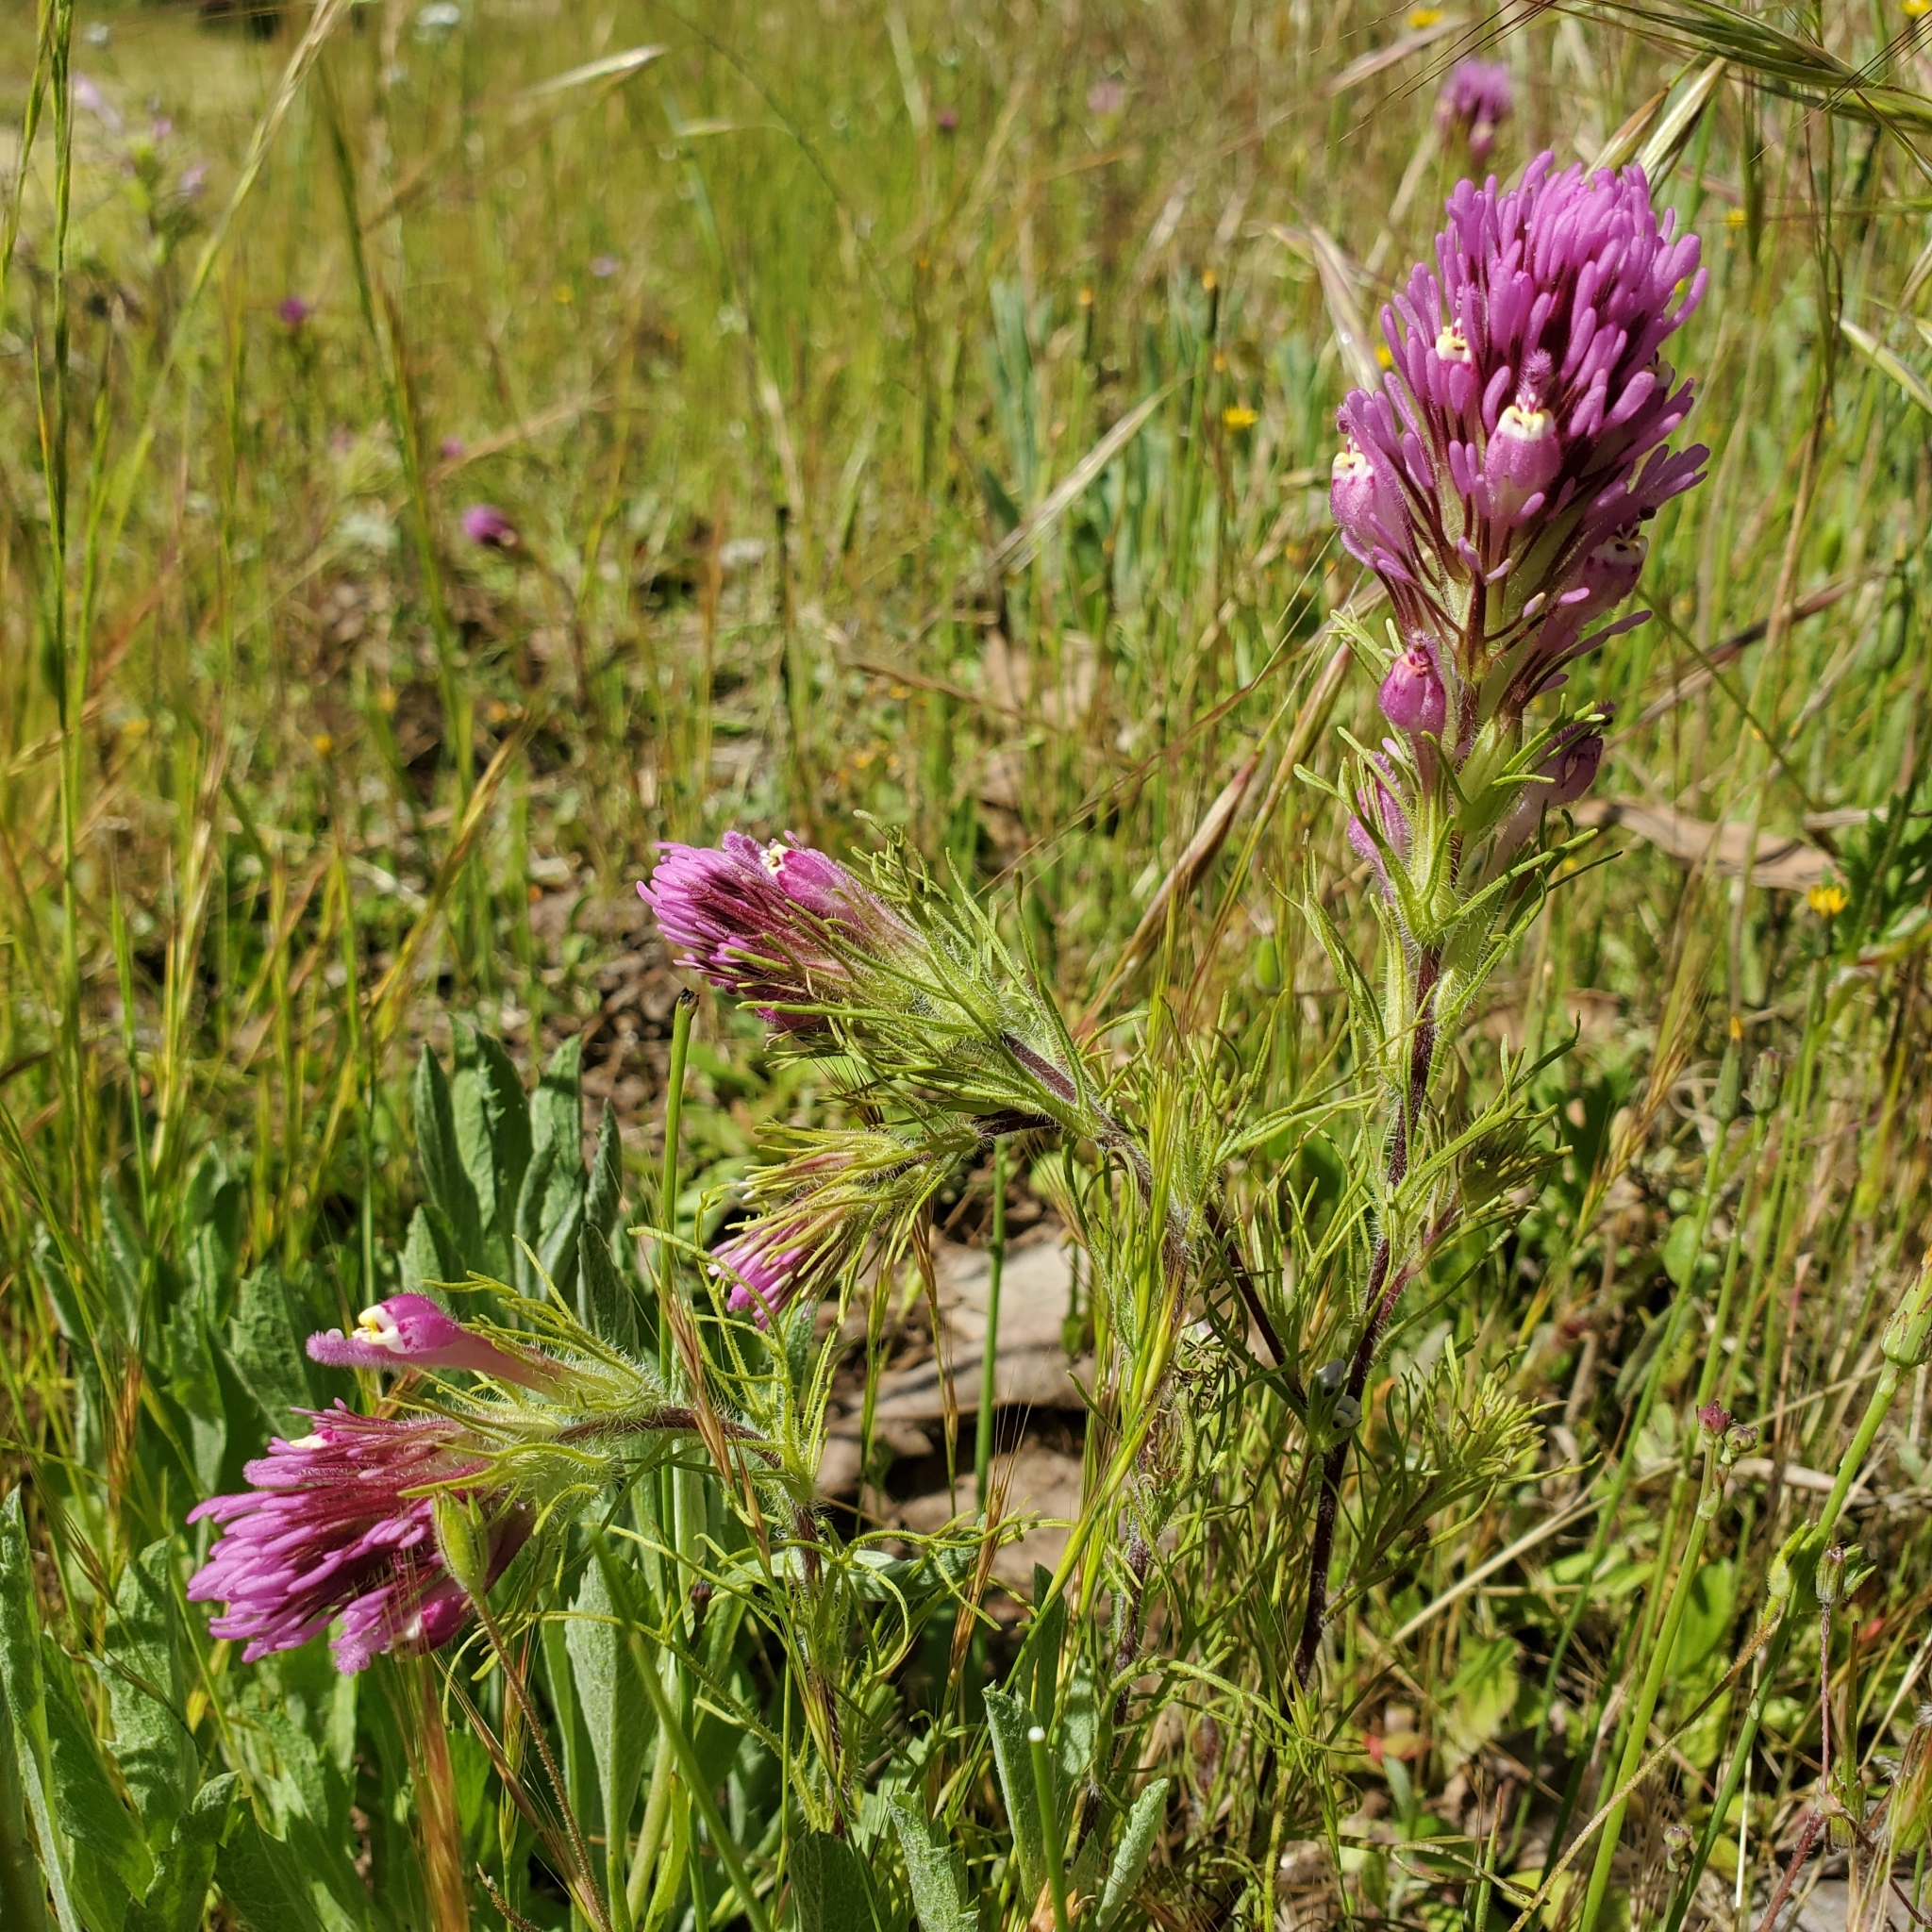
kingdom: Plantae
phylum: Tracheophyta
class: Magnoliopsida
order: Lamiales
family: Orobanchaceae
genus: Castilleja
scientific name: Castilleja exserta
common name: Purple owl-clover
